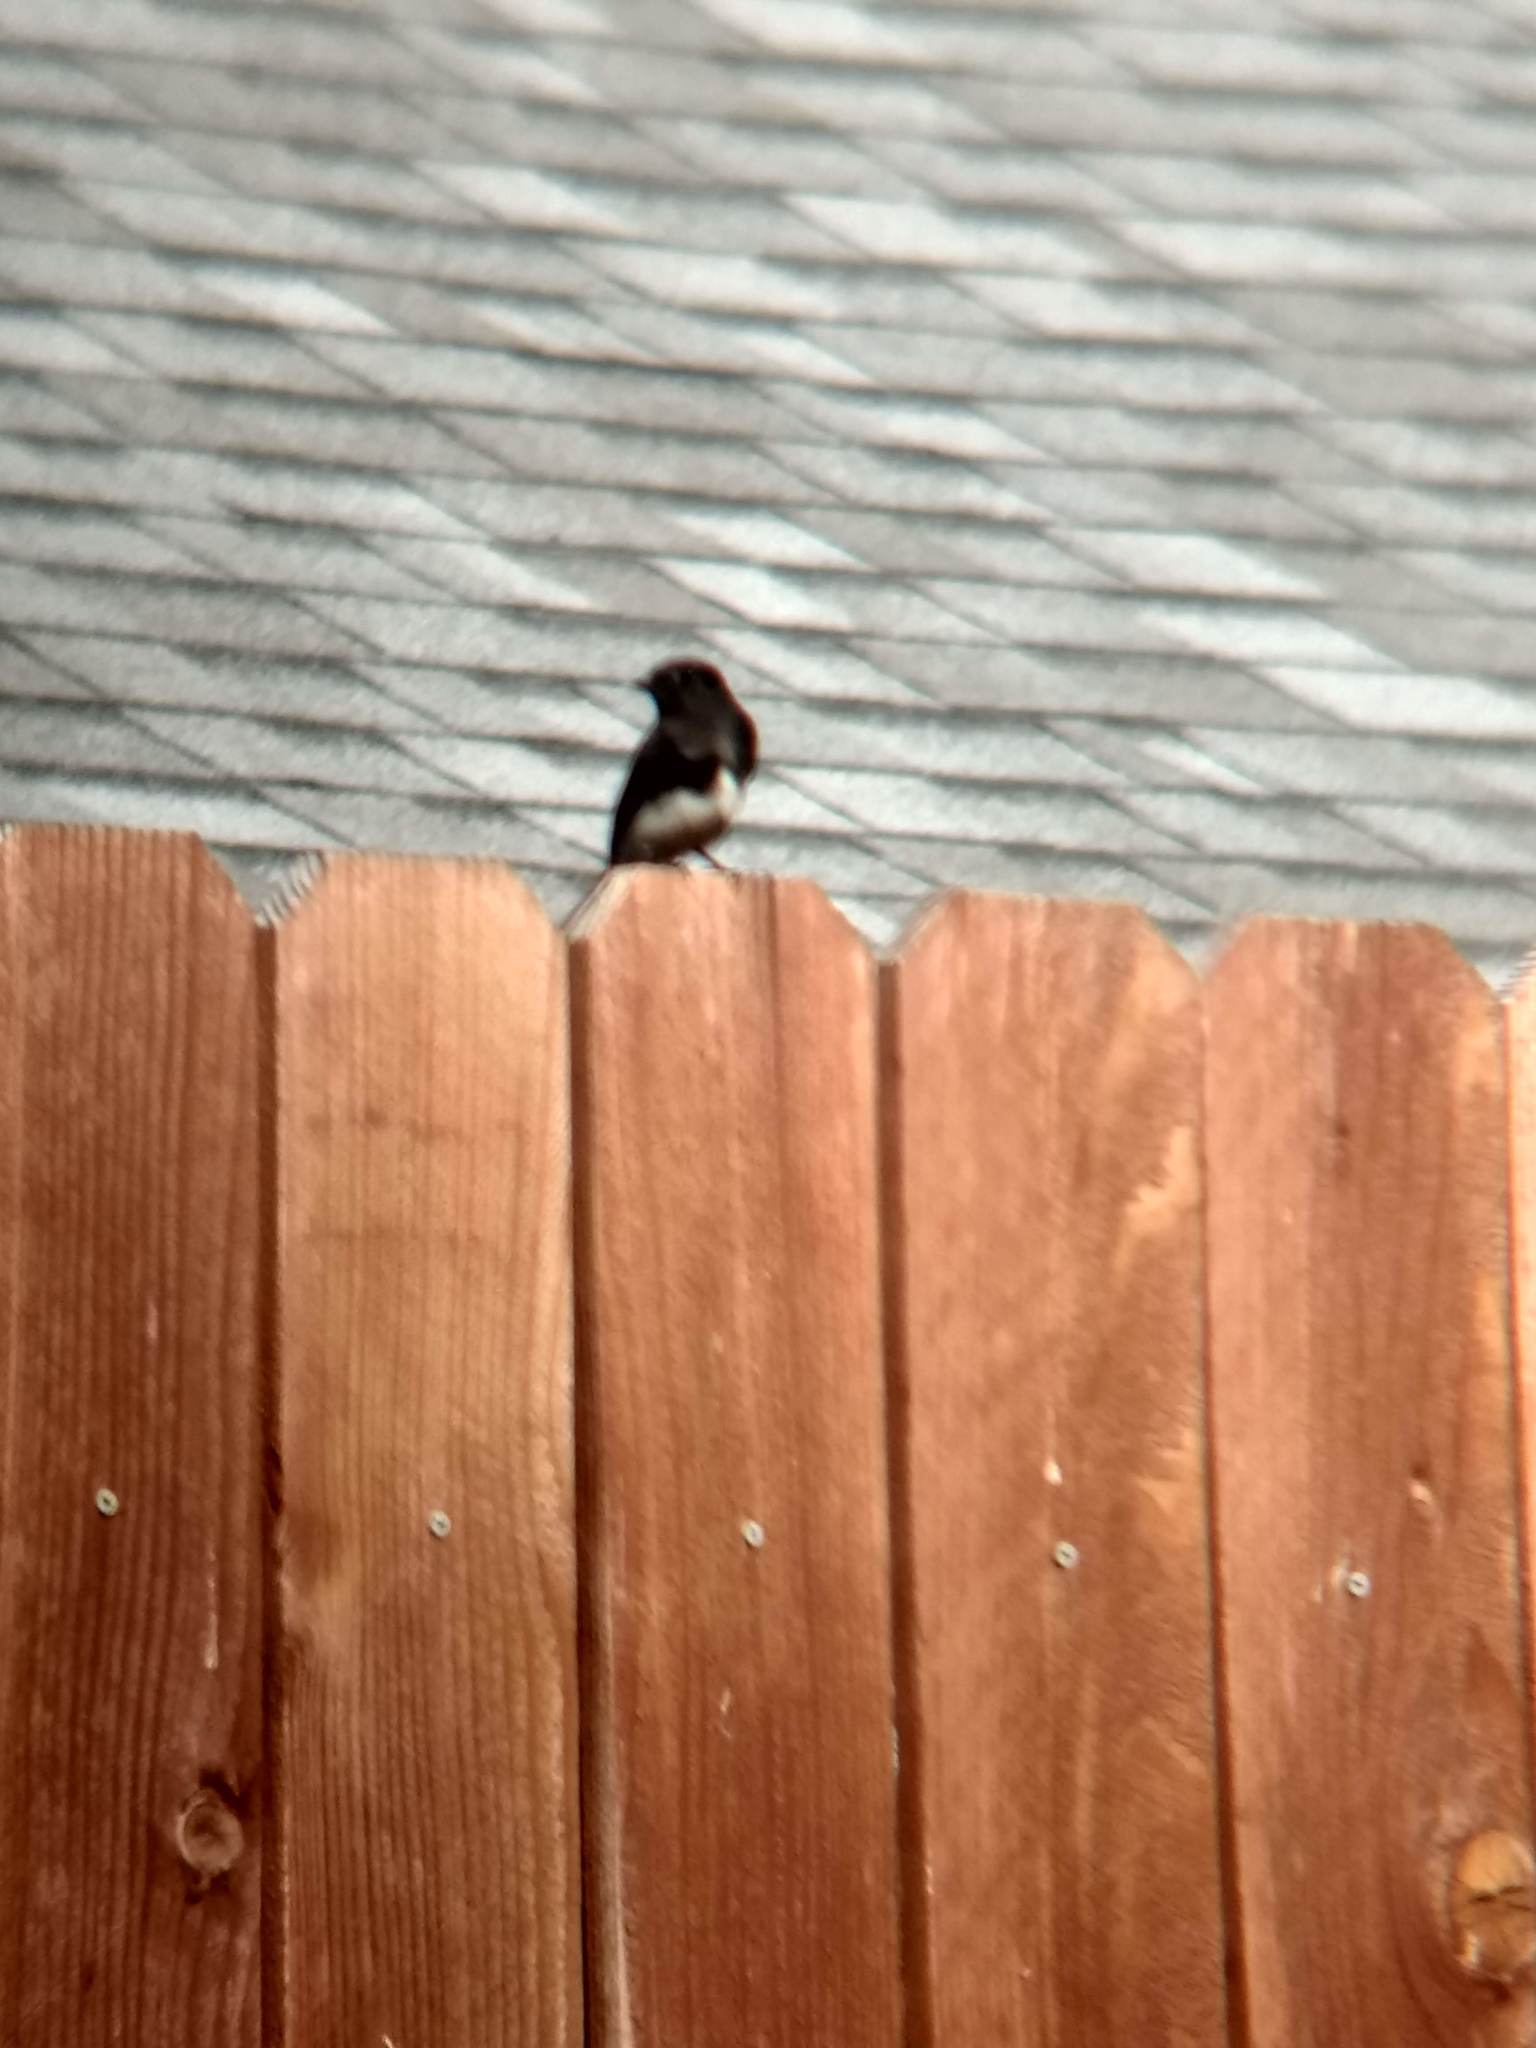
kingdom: Animalia
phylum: Chordata
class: Aves
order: Passeriformes
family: Tyrannidae
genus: Sayornis
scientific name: Sayornis nigricans
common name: Black phoebe
